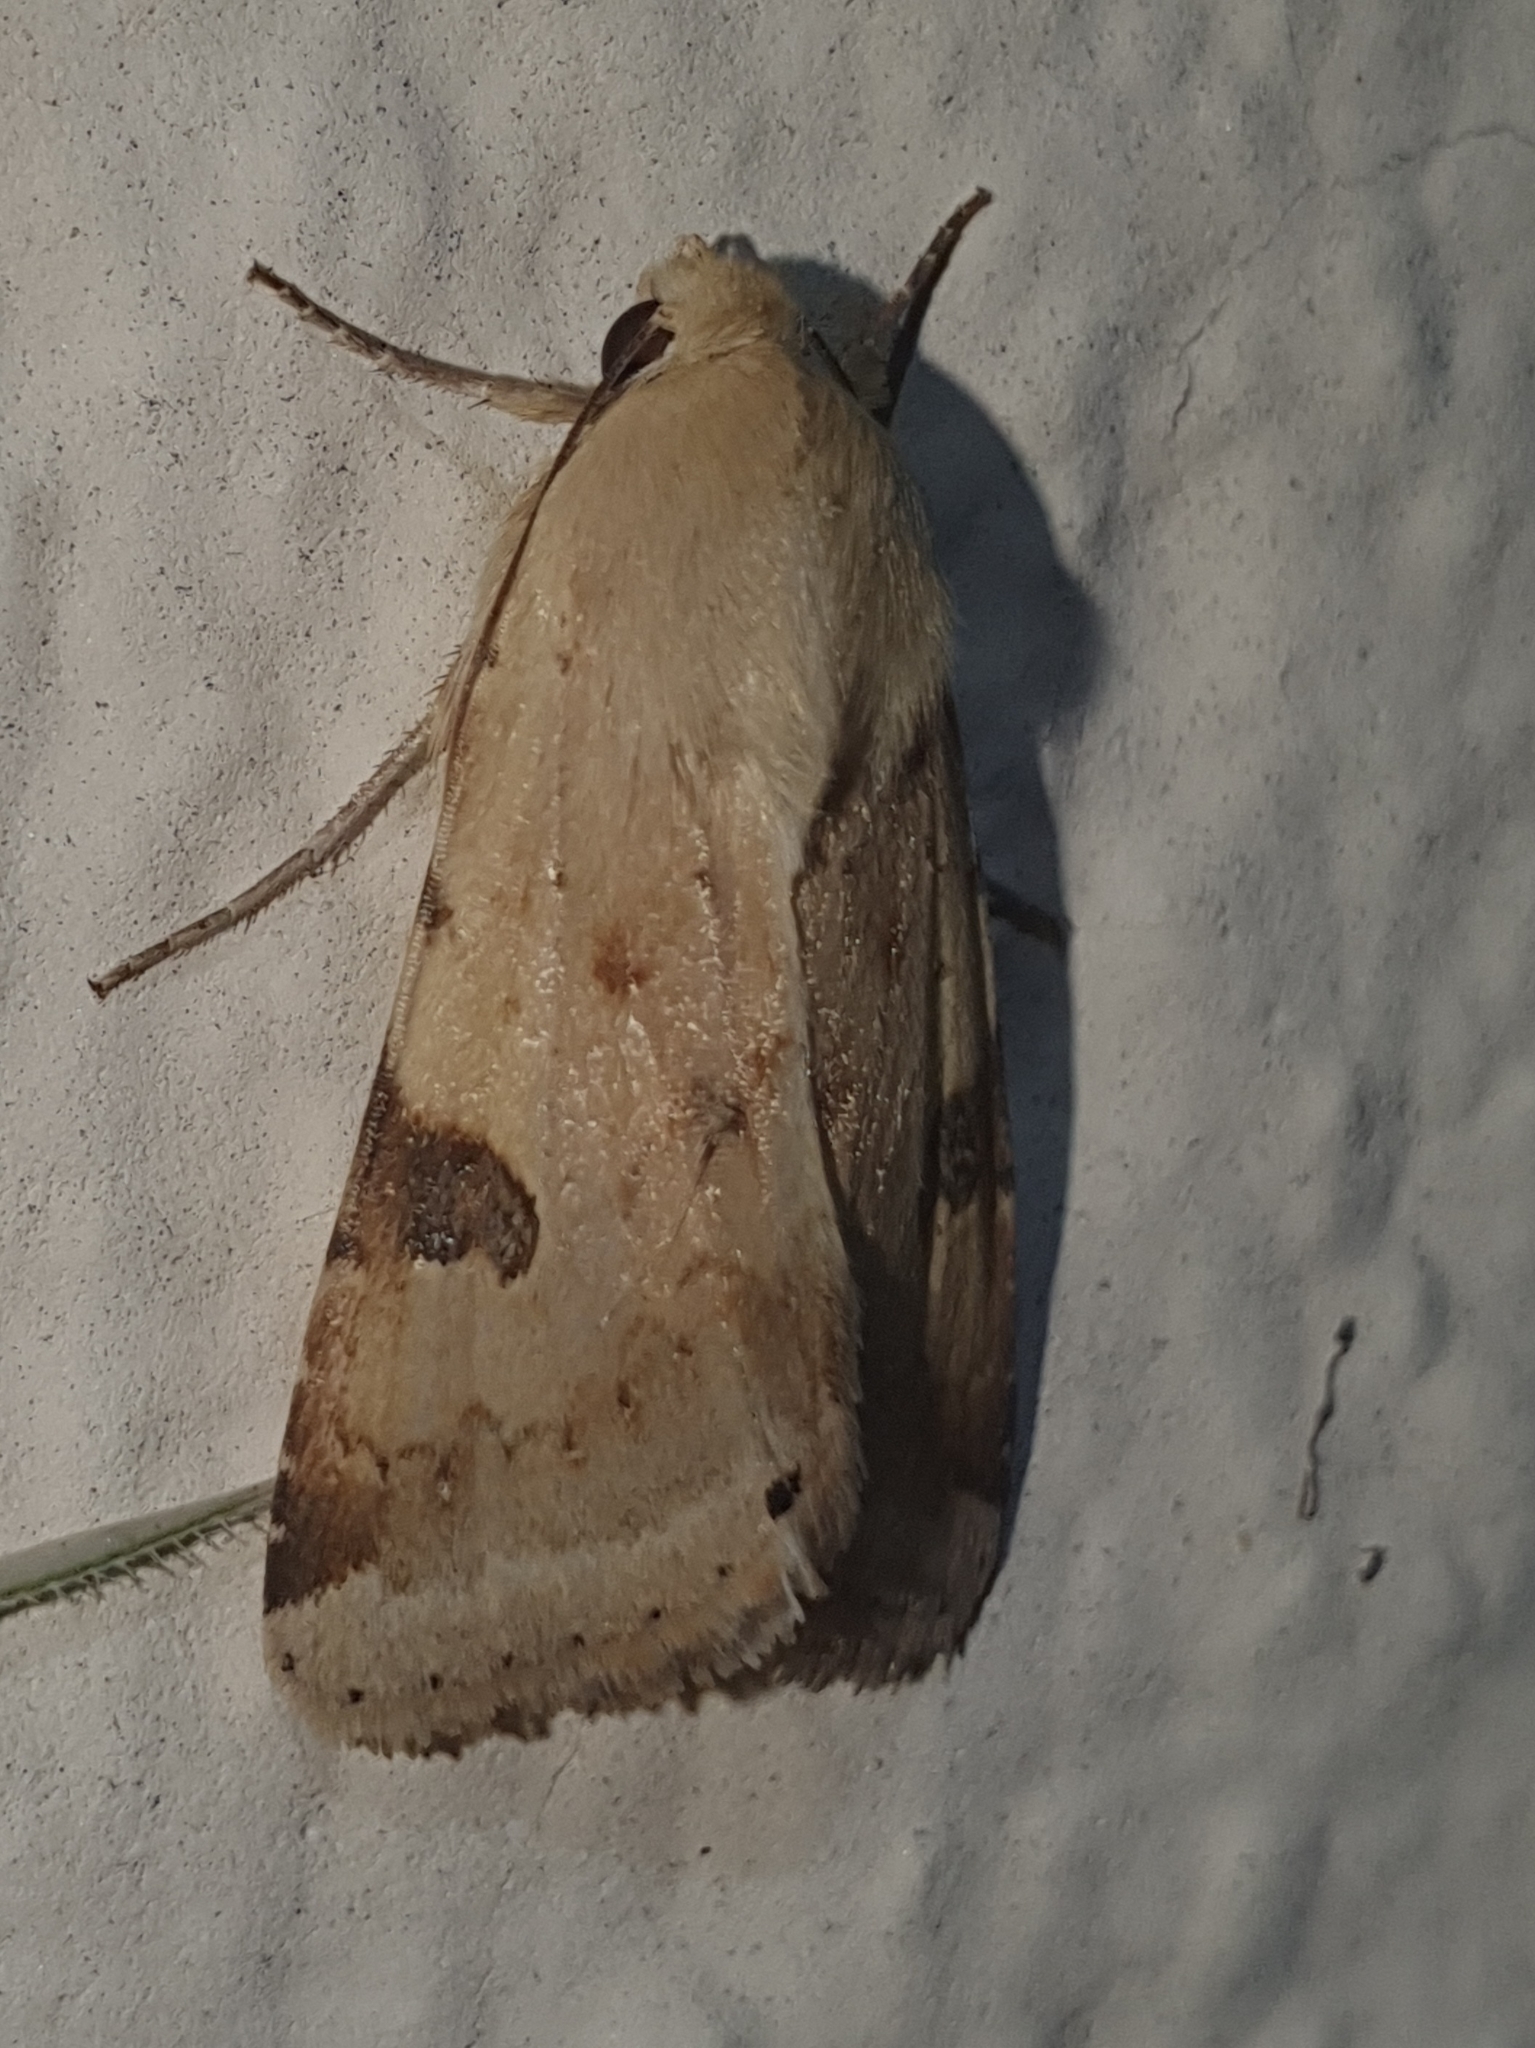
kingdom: Animalia
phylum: Arthropoda
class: Insecta
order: Lepidoptera
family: Noctuidae
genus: Heliothis
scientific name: Heliothis peltigera
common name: Bordered straw
